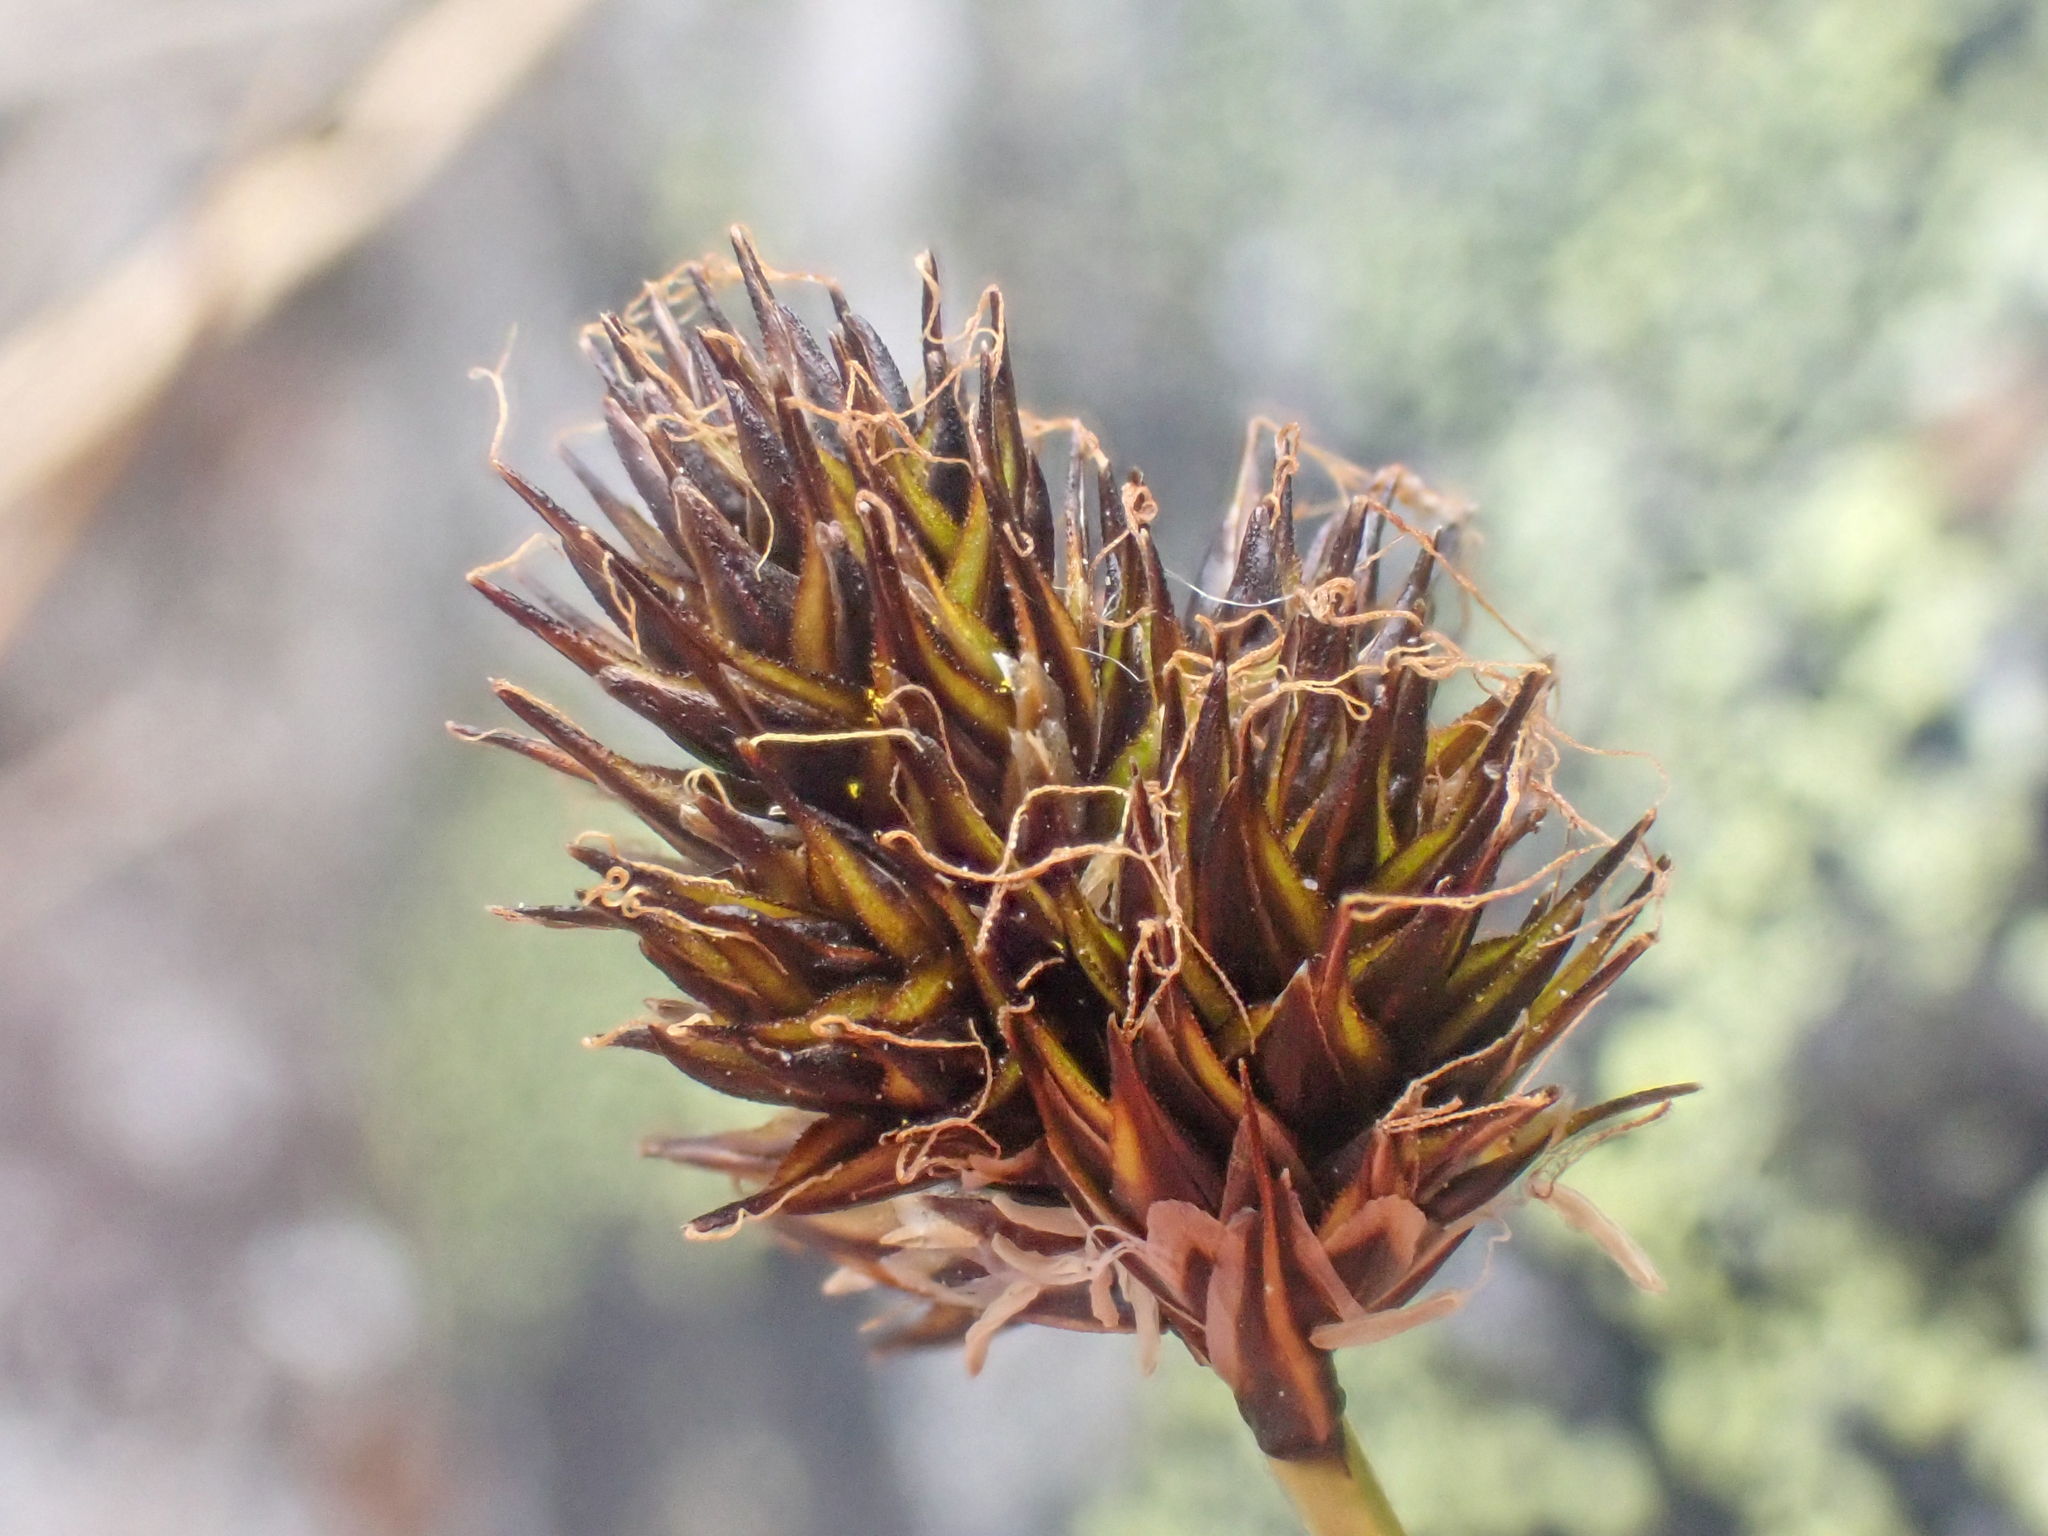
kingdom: Plantae
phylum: Tracheophyta
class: Liliopsida
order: Poales
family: Cyperaceae
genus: Carex
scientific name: Carex haydeniana
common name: Cloud sedge
